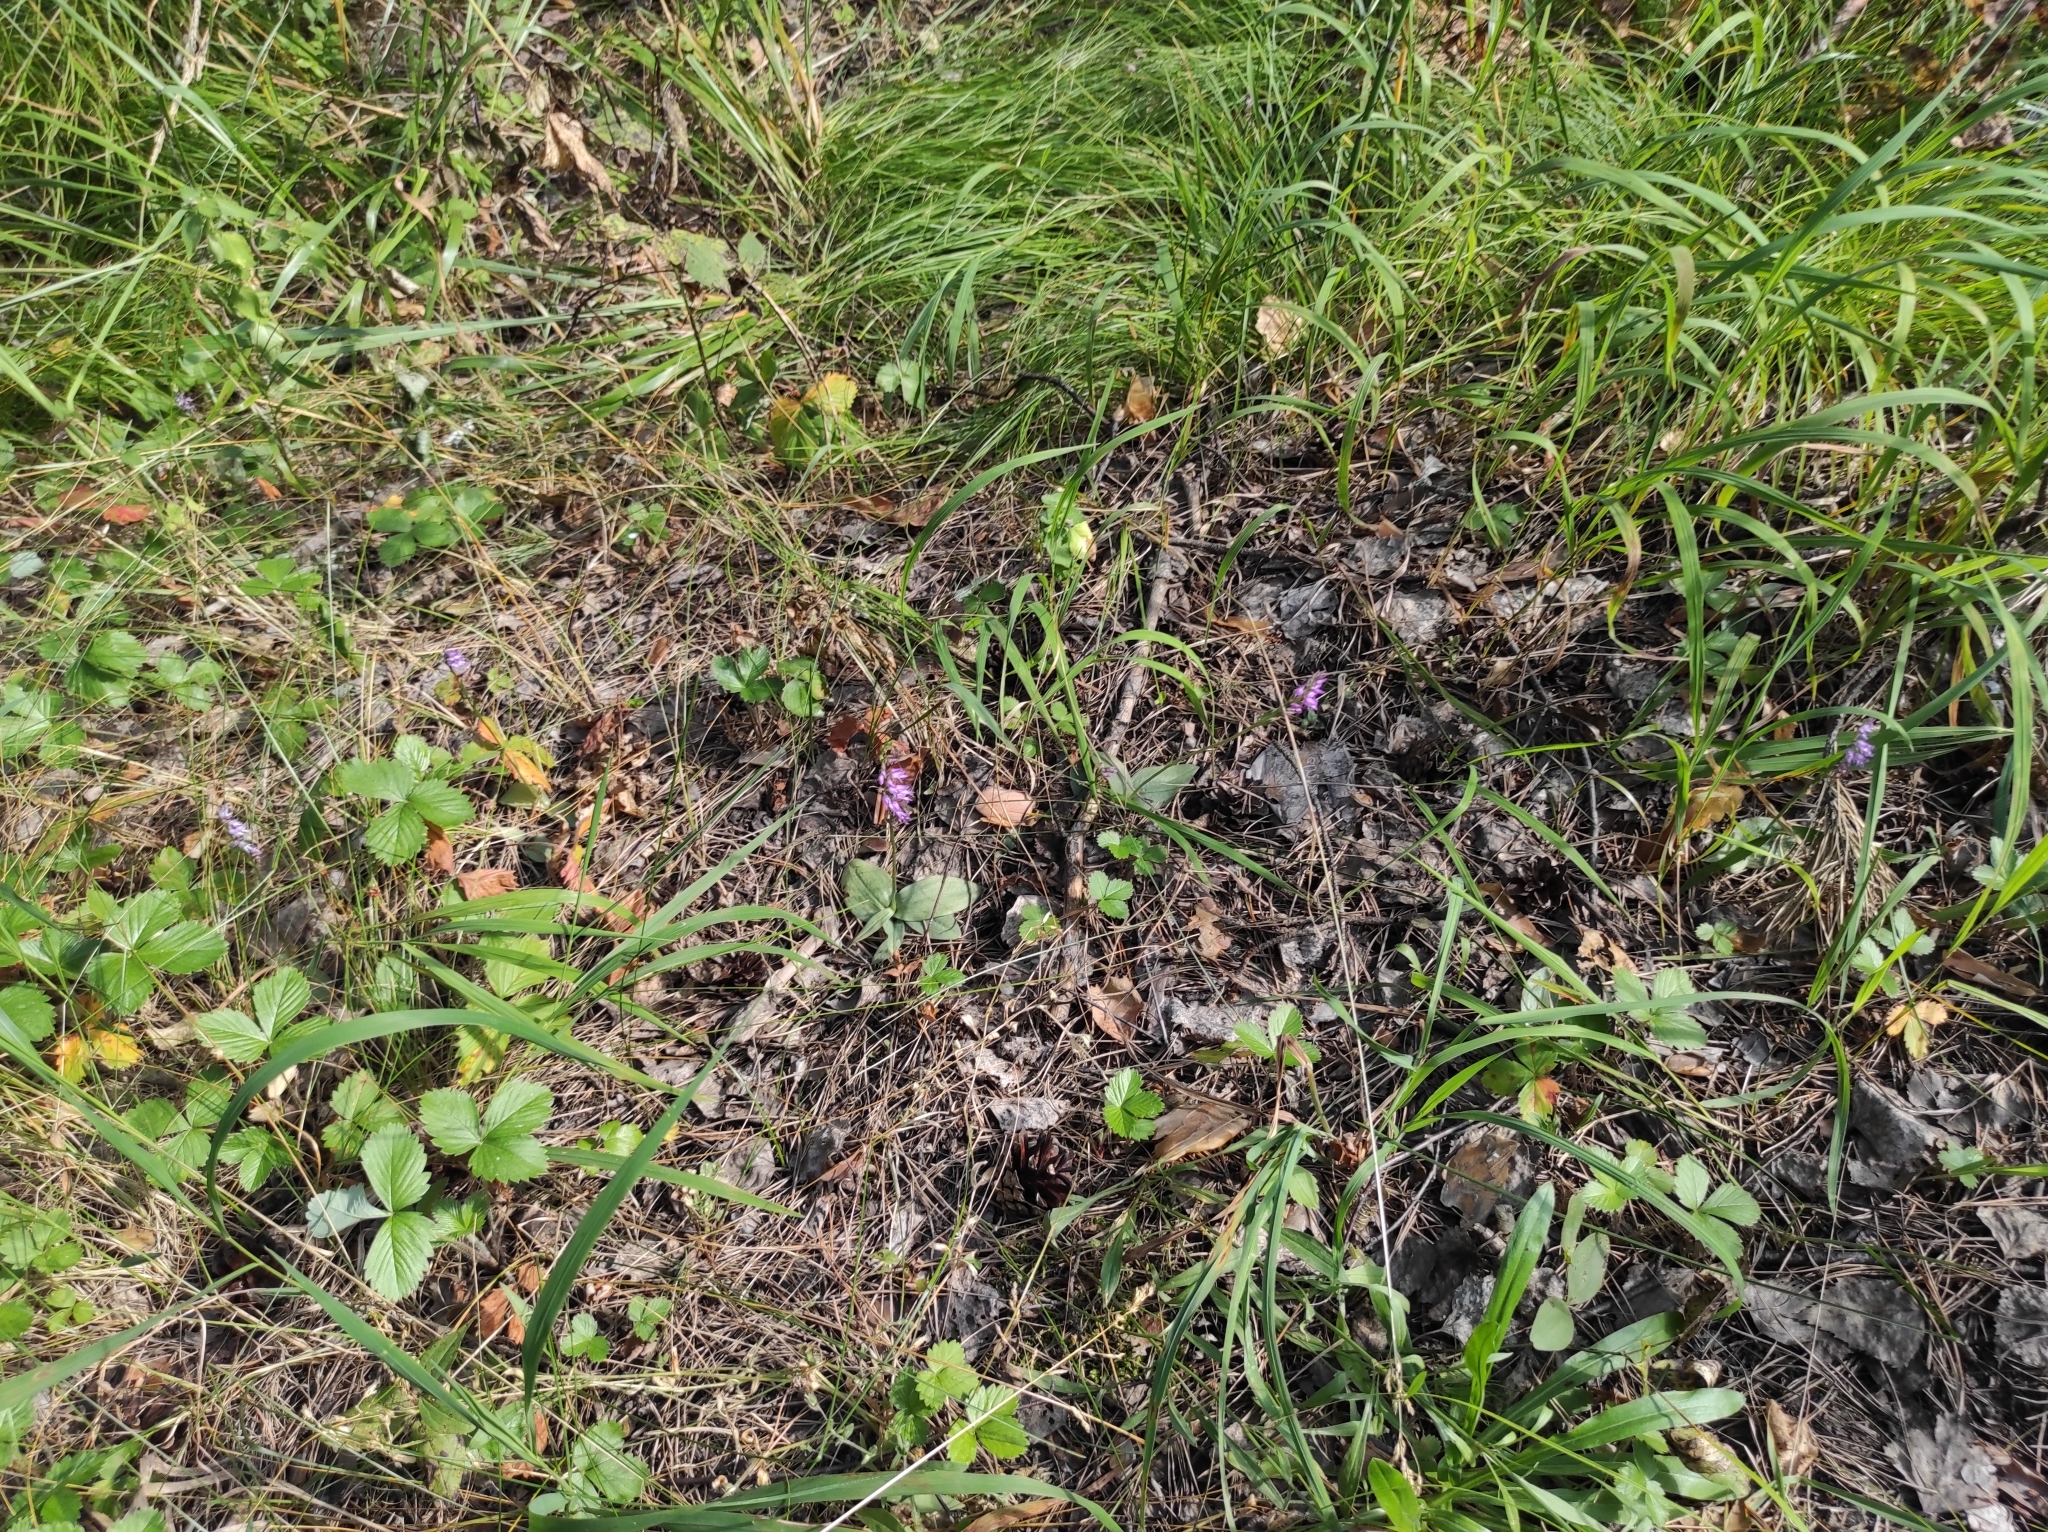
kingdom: Plantae
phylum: Tracheophyta
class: Liliopsida
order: Asparagales
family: Orchidaceae
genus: Hemipilia
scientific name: Hemipilia cucullata
